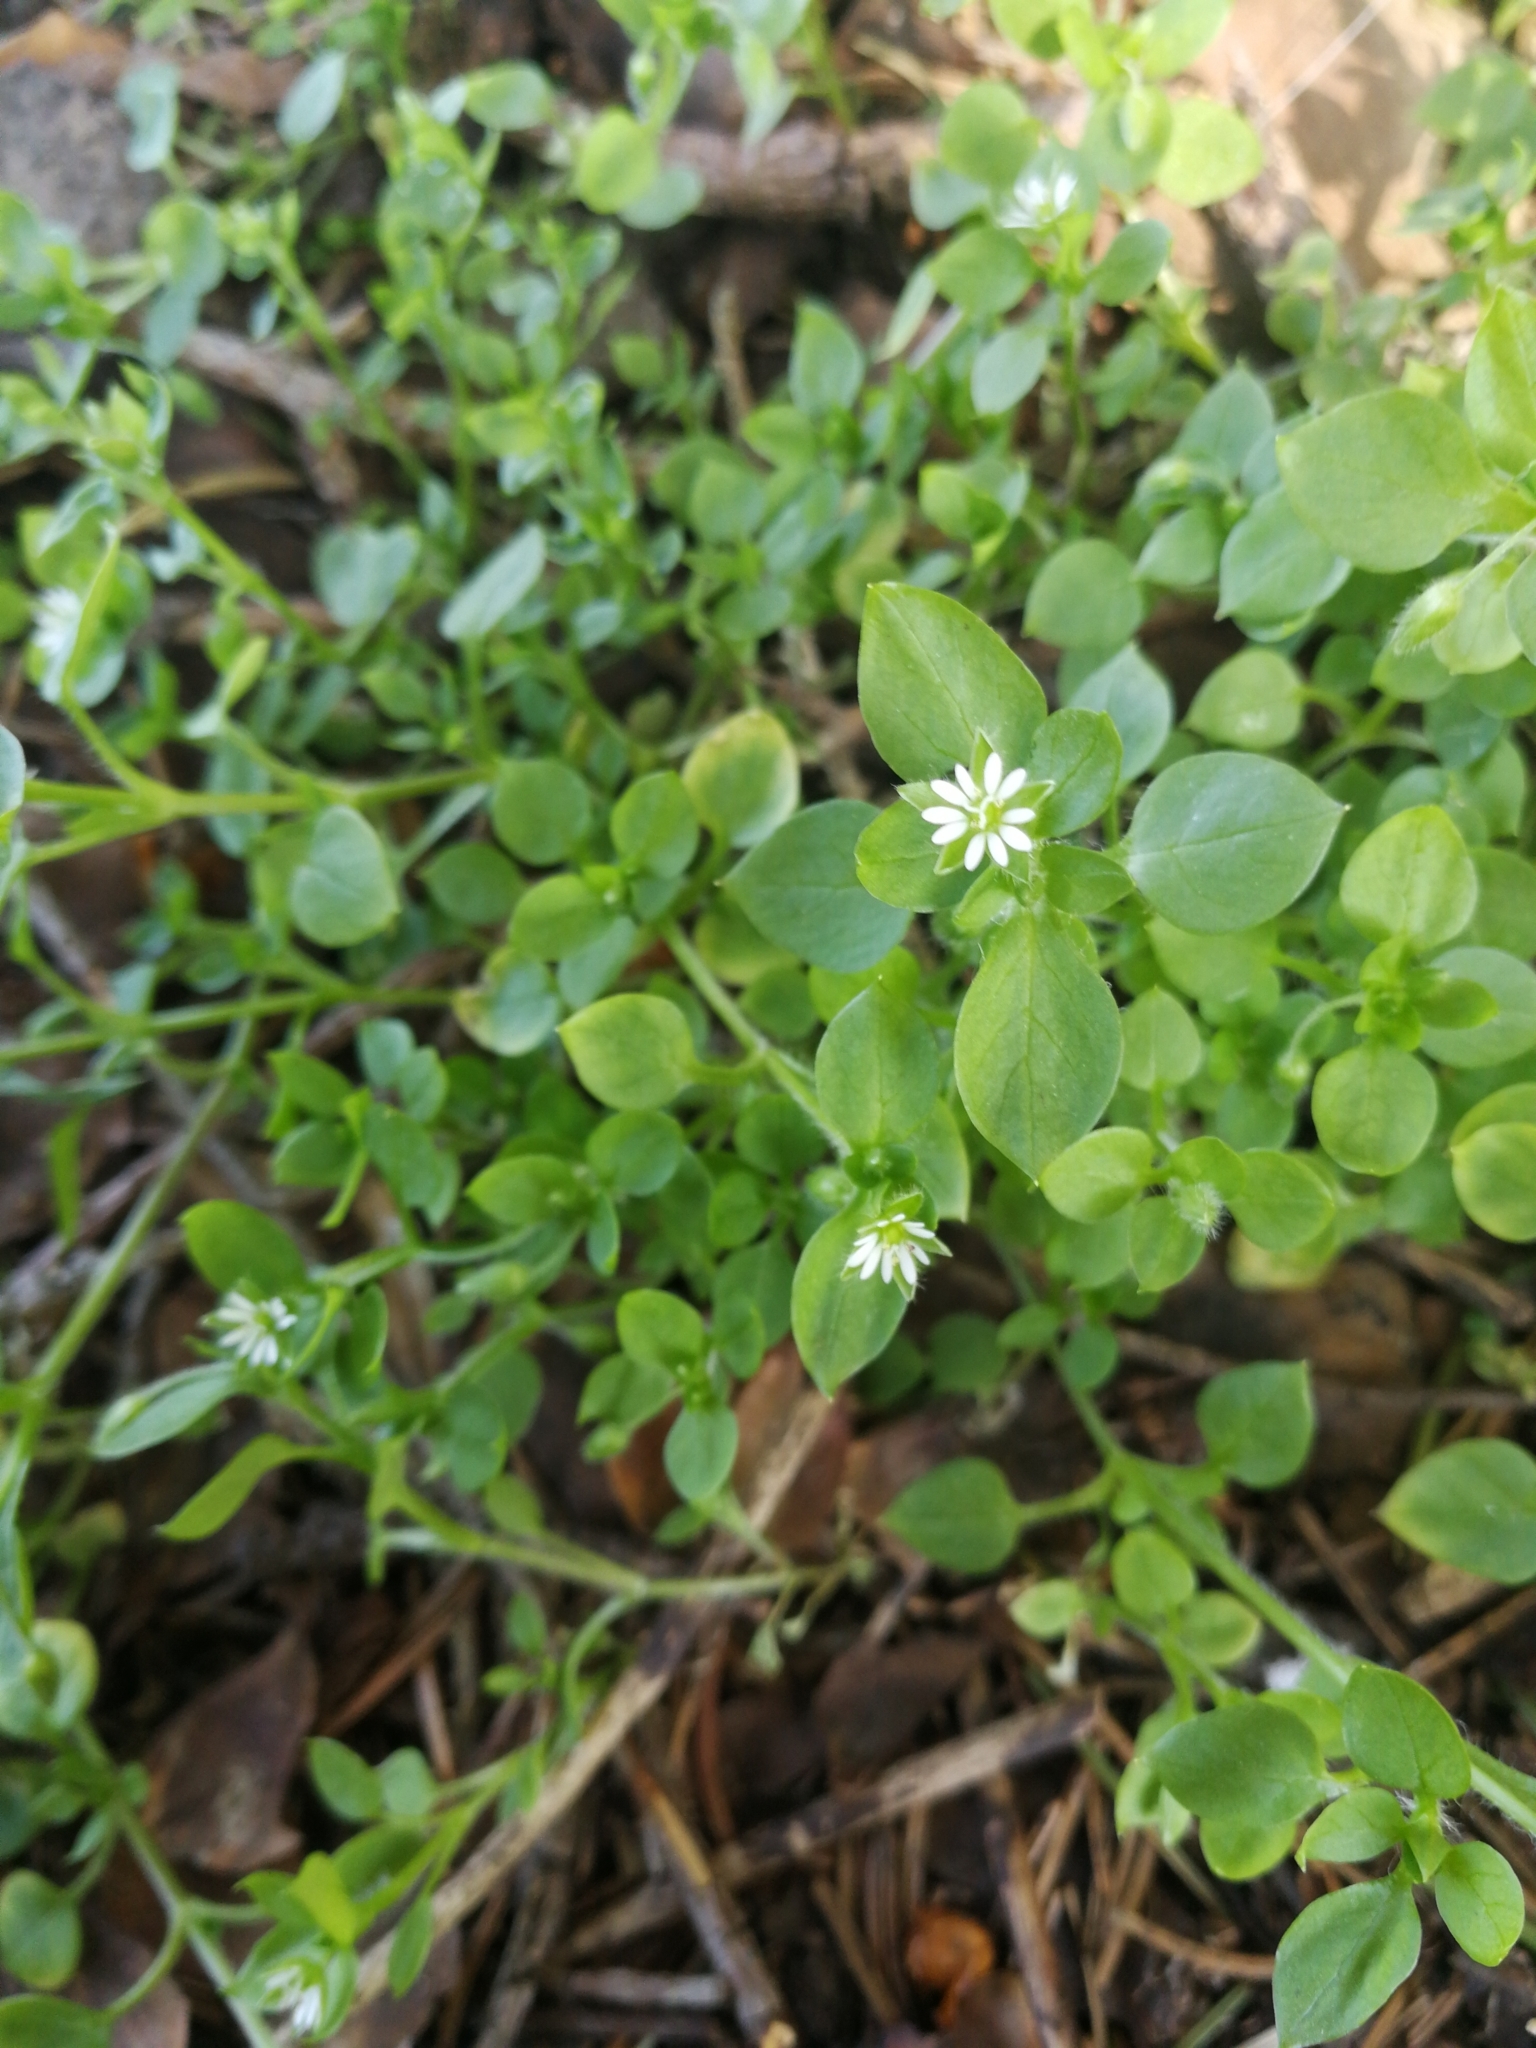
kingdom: Plantae
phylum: Tracheophyta
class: Magnoliopsida
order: Caryophyllales
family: Caryophyllaceae
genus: Stellaria
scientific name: Stellaria media
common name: Common chickweed
